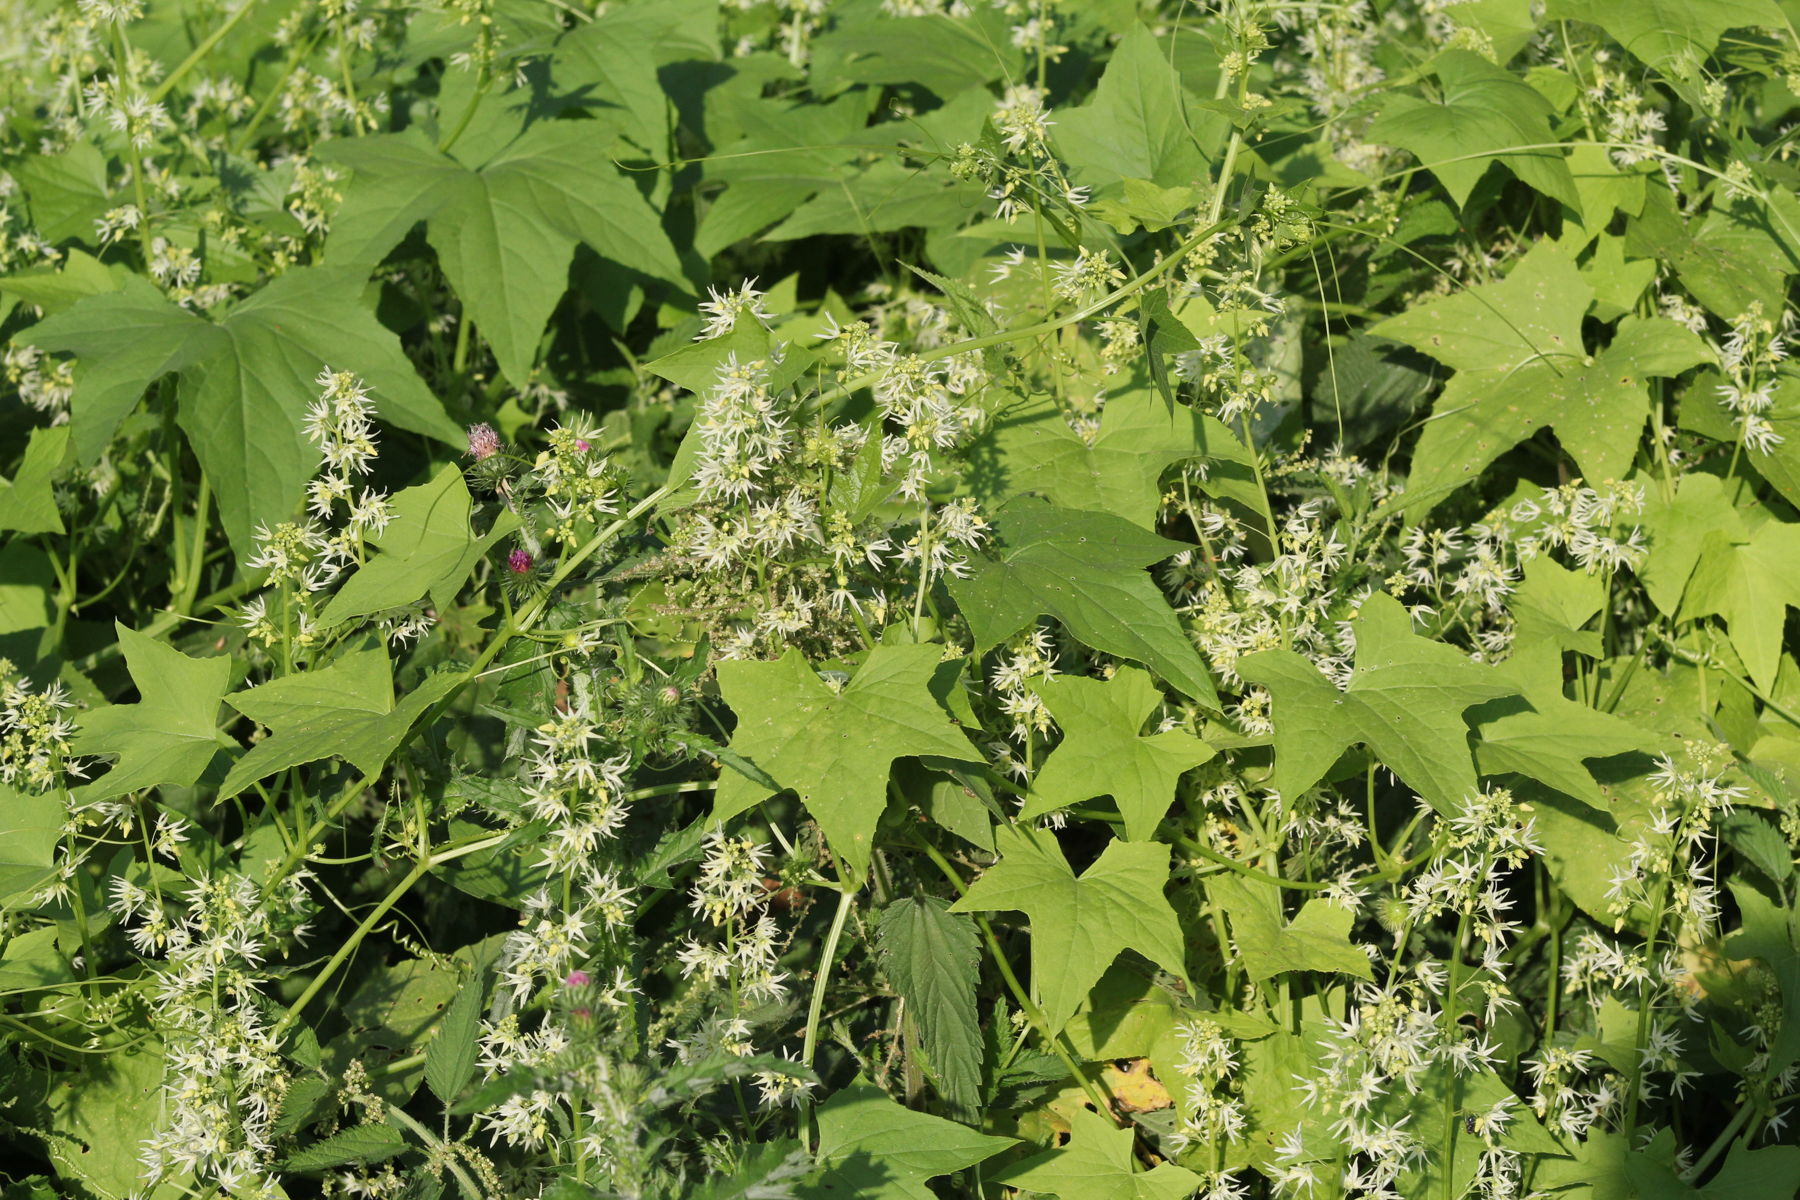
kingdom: Plantae
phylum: Tracheophyta
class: Magnoliopsida
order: Cucurbitales
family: Cucurbitaceae
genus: Echinocystis
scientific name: Echinocystis lobata
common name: Wild cucumber
